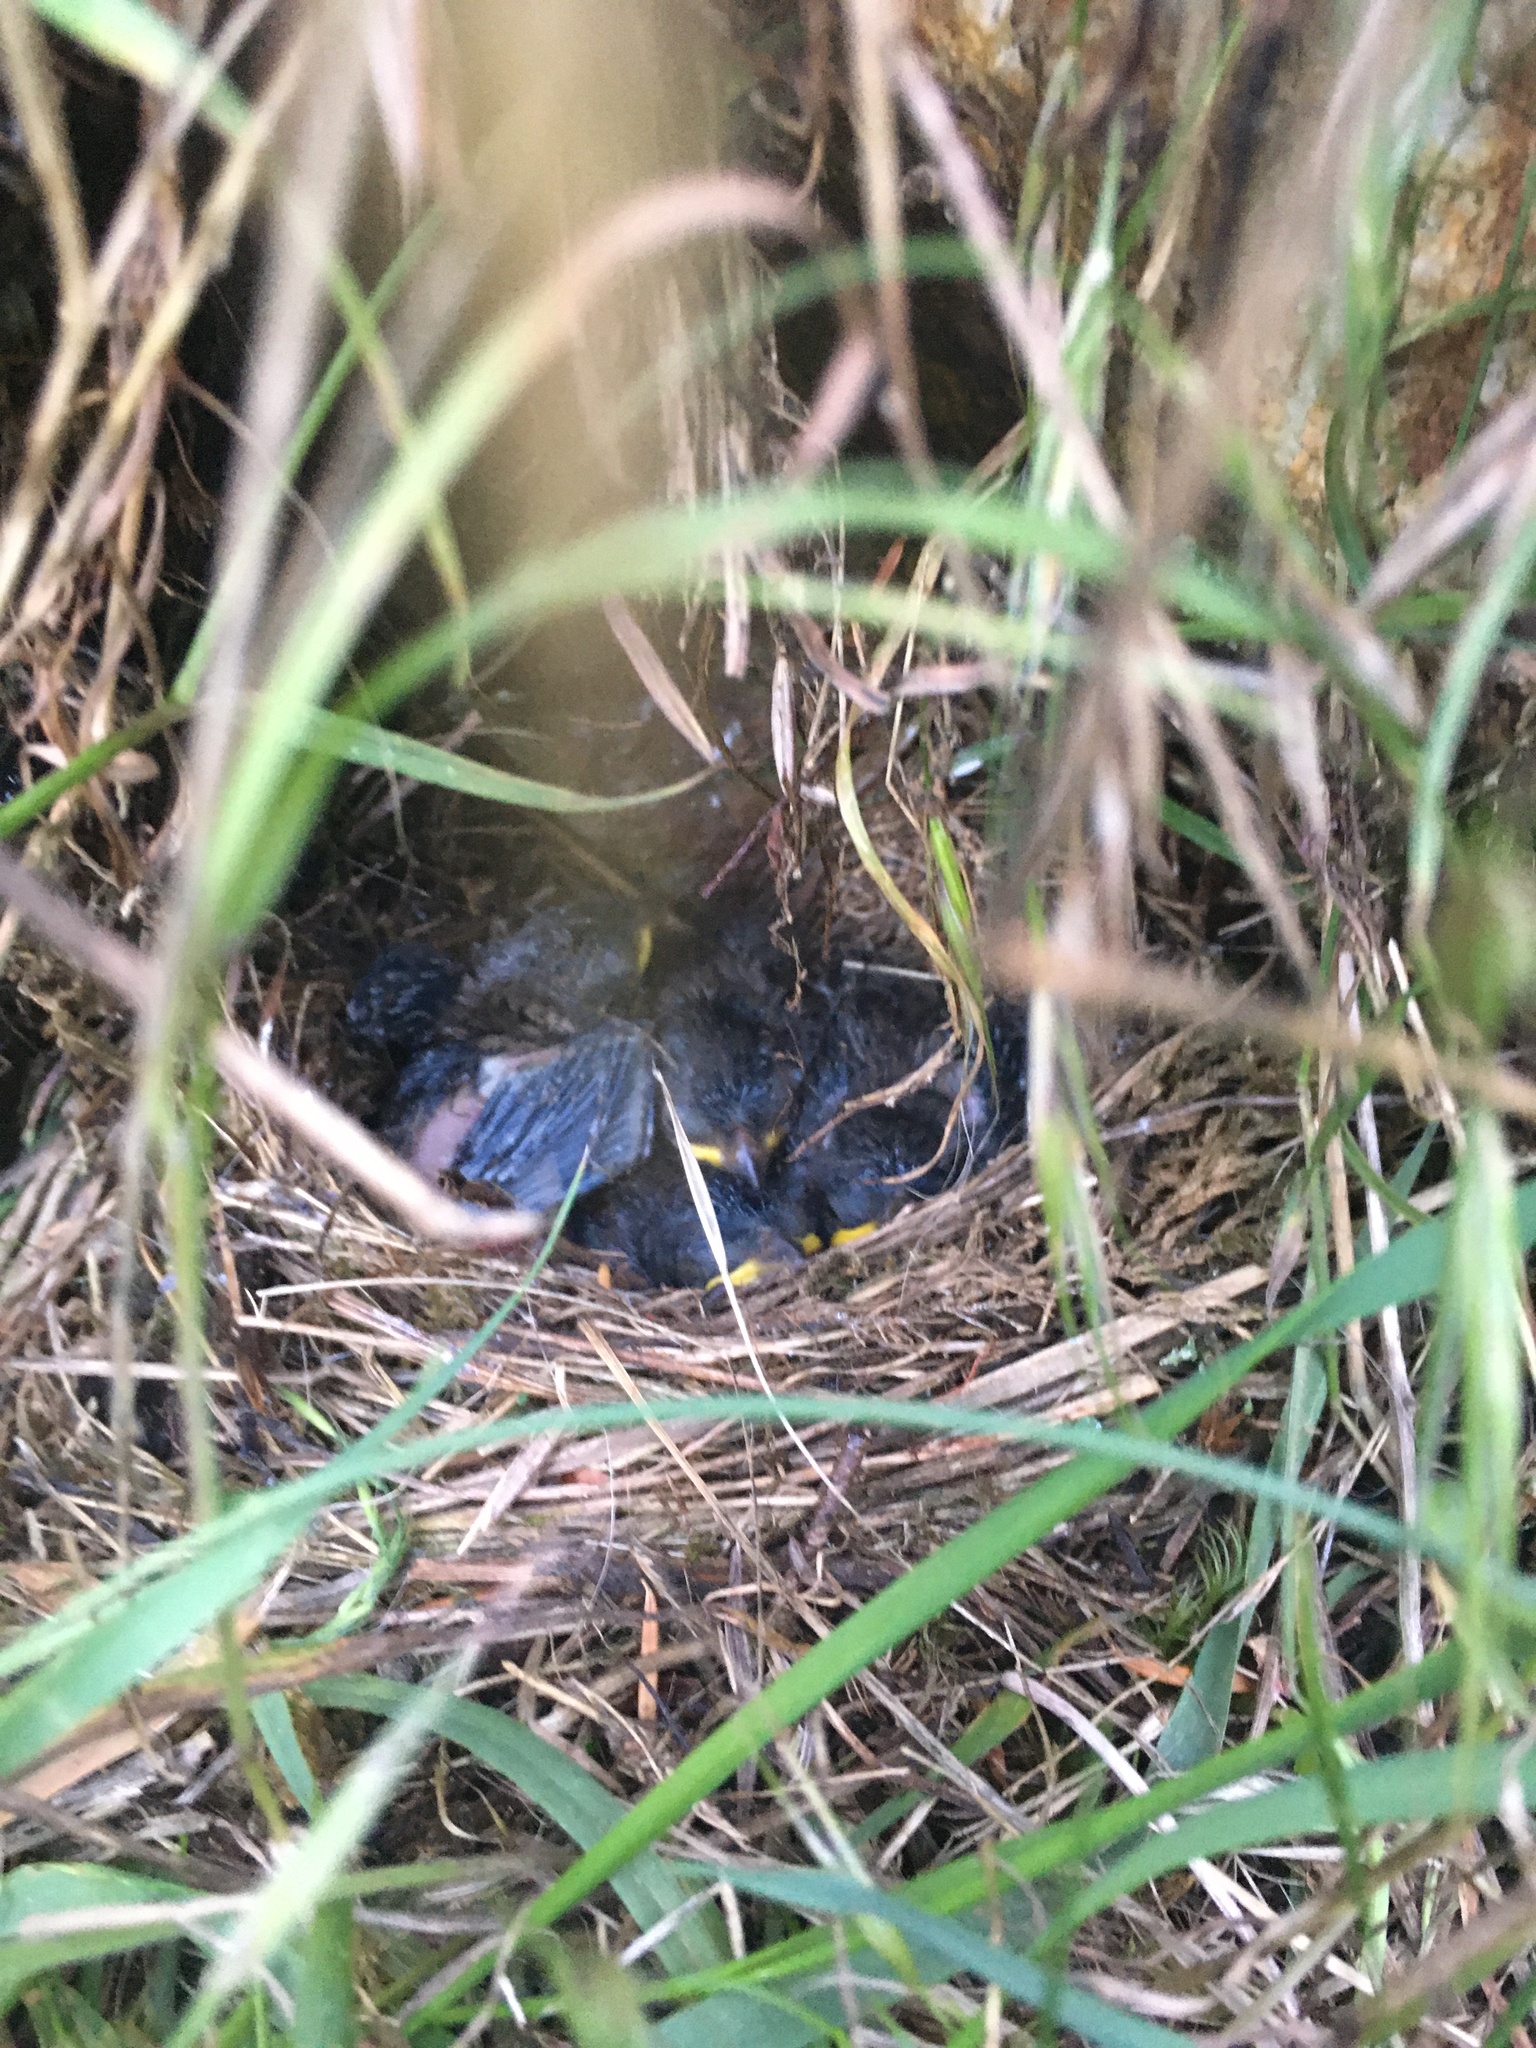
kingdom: Animalia
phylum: Chordata
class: Aves
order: Passeriformes
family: Passerellidae
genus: Junco
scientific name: Junco hyemalis
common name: Dark-eyed junco
